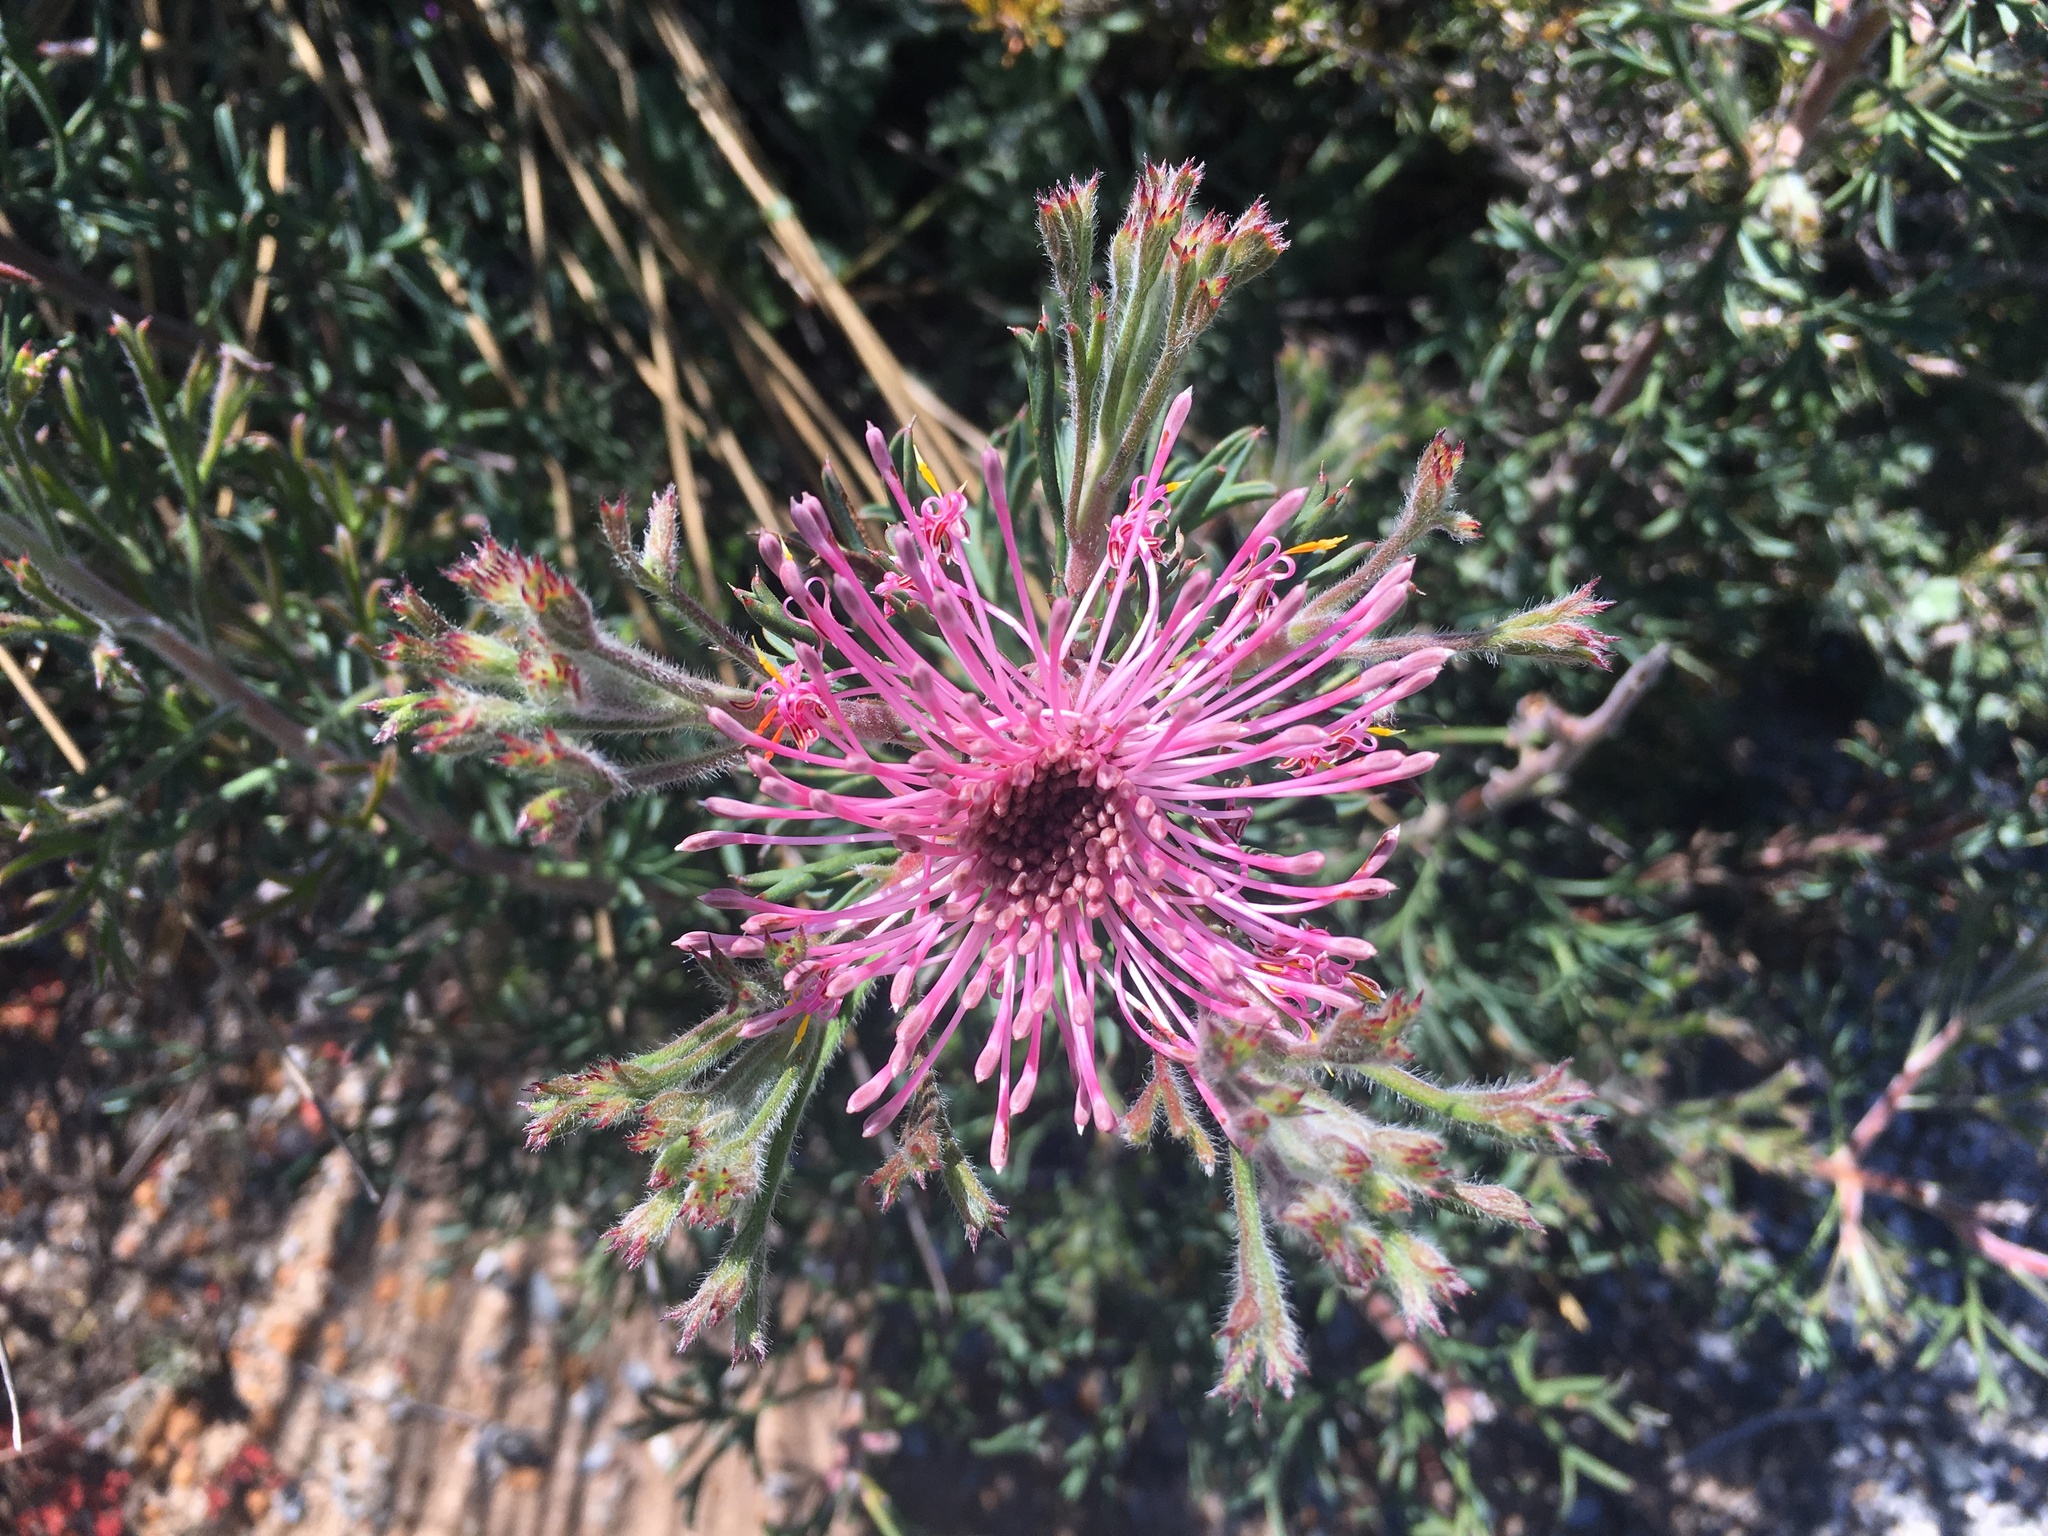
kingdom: Plantae
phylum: Tracheophyta
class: Magnoliopsida
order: Proteales
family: Proteaceae
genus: Isopogon
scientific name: Isopogon dubius
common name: Pincushion-coneflower
